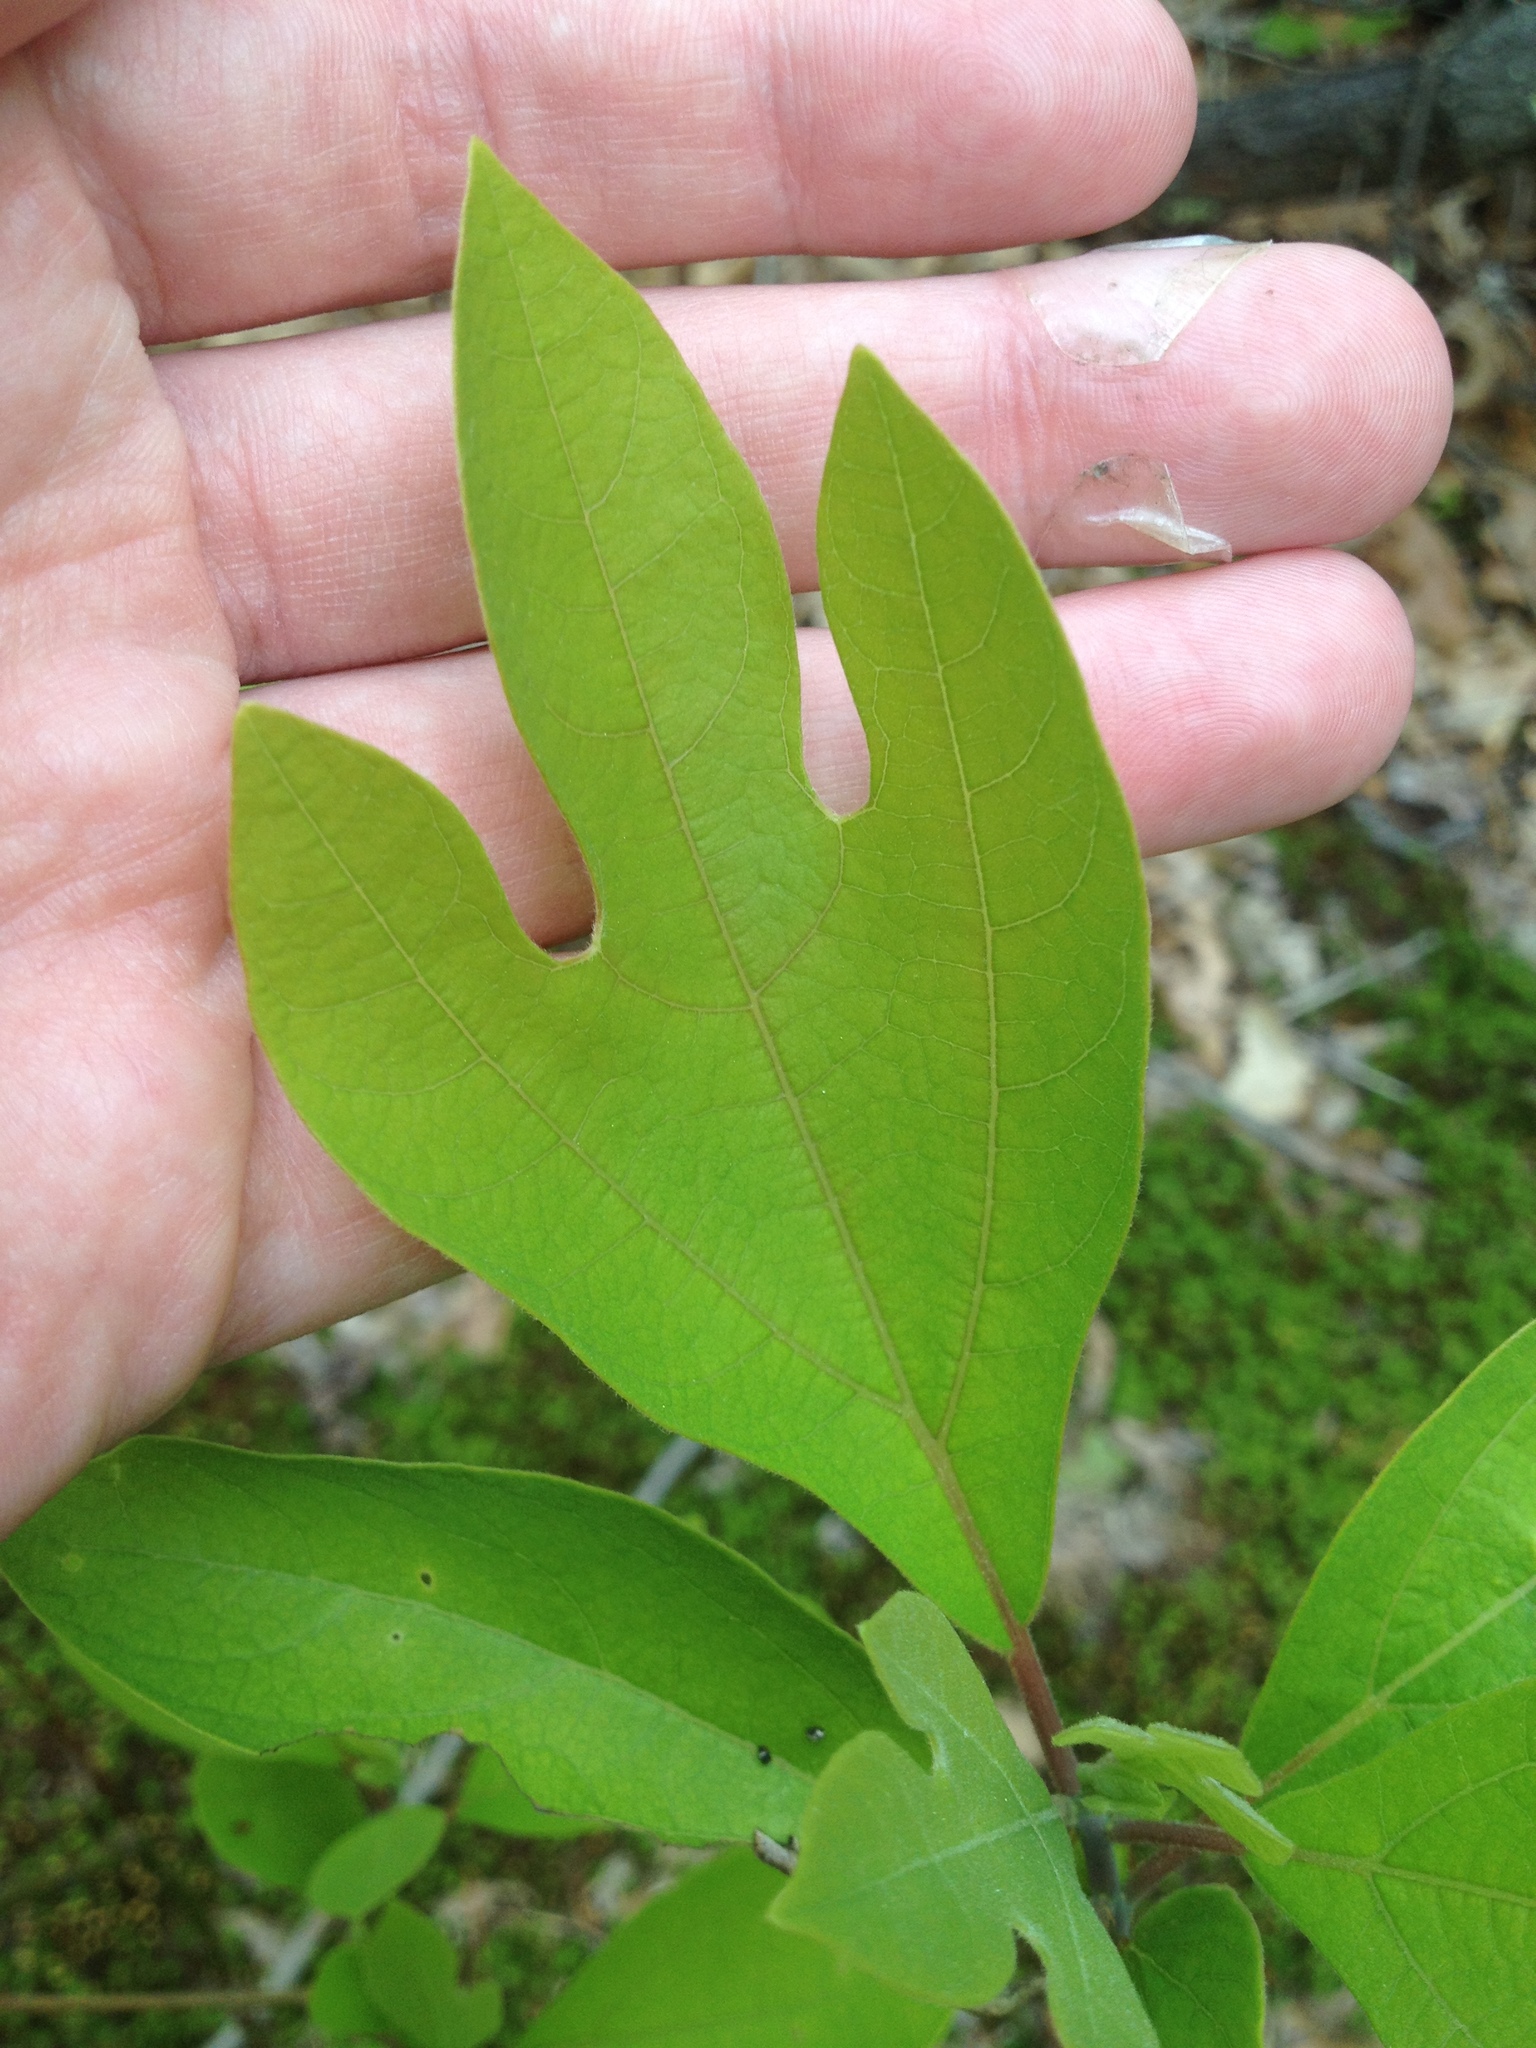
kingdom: Plantae
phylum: Tracheophyta
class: Magnoliopsida
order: Laurales
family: Lauraceae
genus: Sassafras
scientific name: Sassafras albidum
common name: Sassafras
